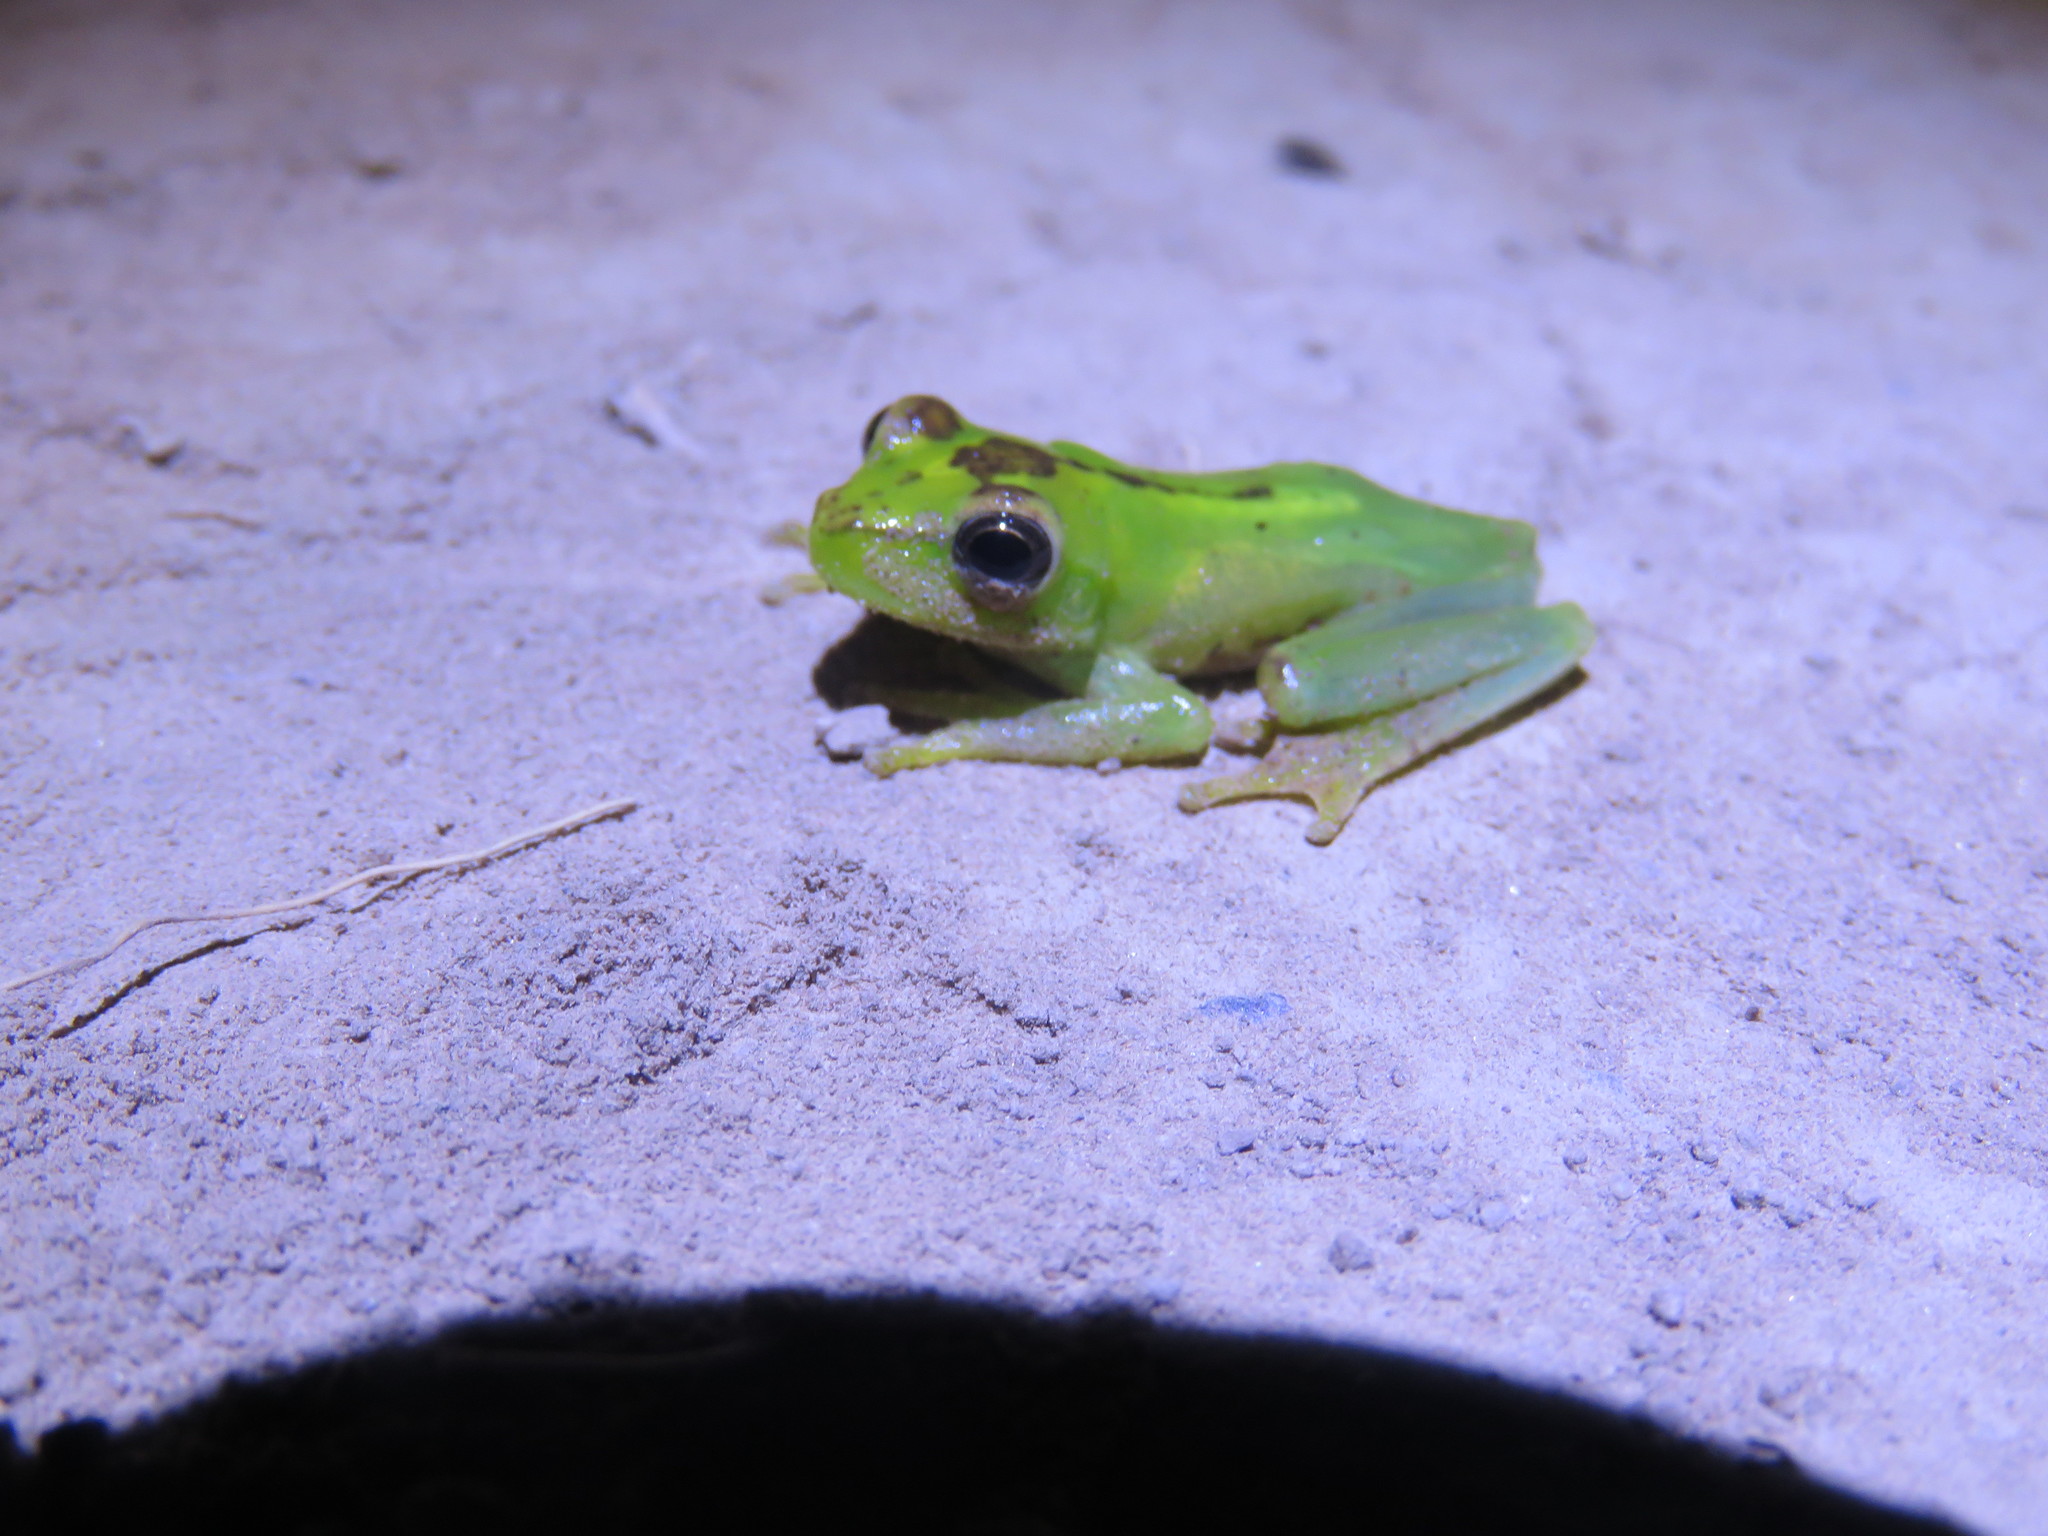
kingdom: Animalia
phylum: Chordata
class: Amphibia
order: Anura
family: Hylidae
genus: Boana
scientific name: Boana punctata
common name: Polka-dot treefrog
